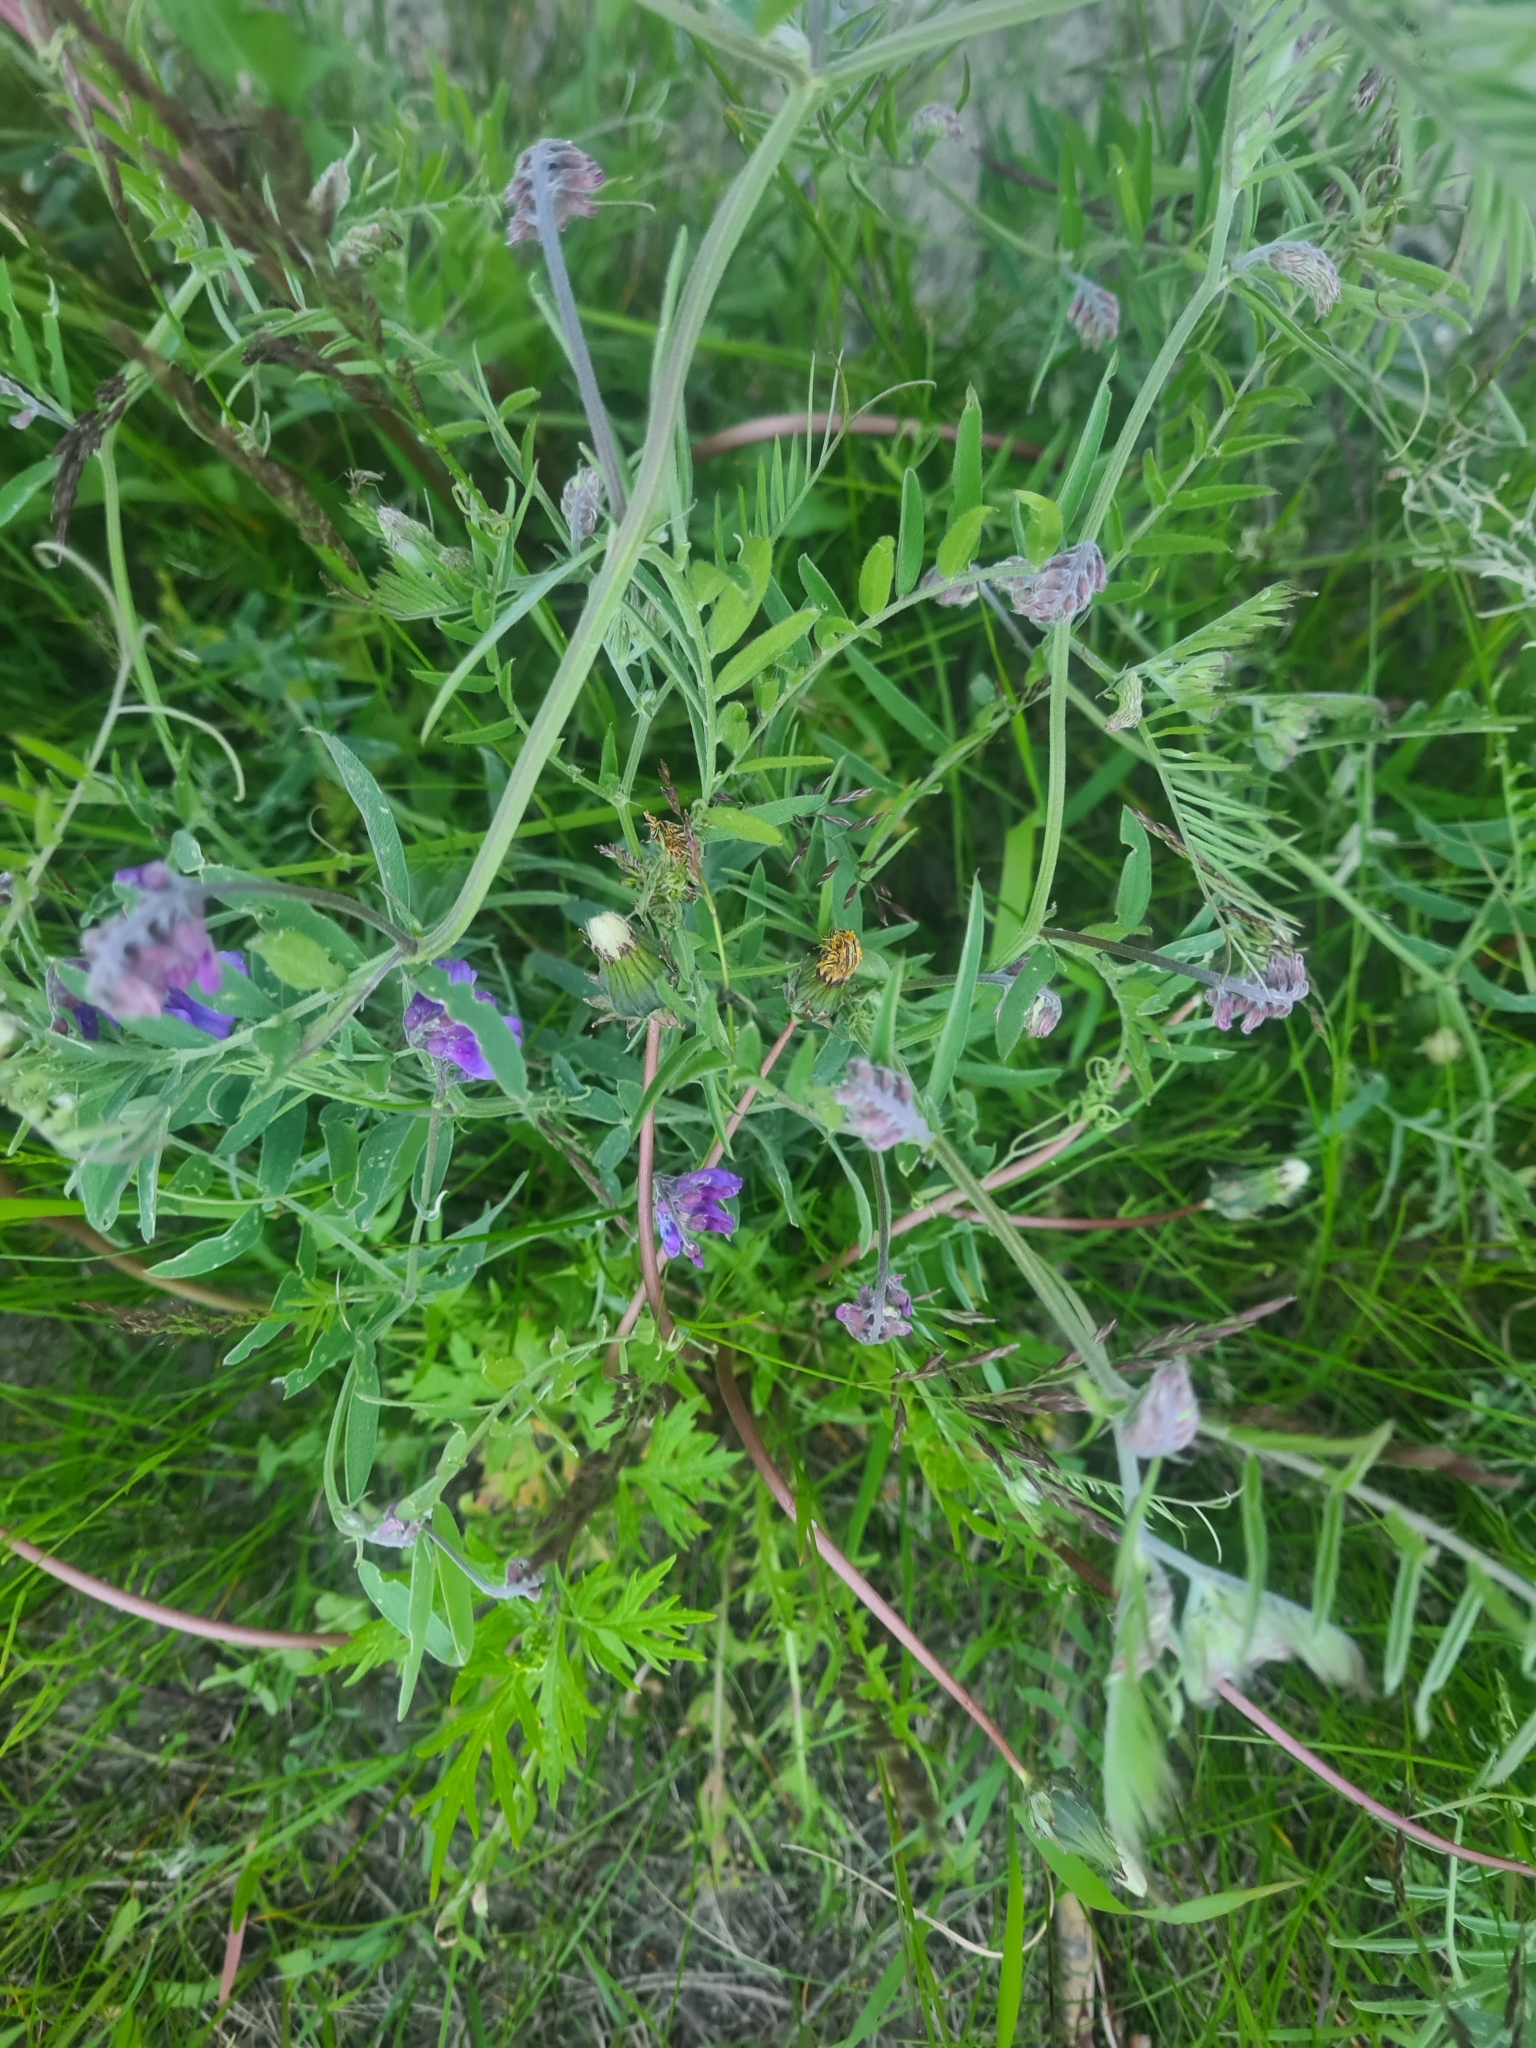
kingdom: Plantae
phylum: Tracheophyta
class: Magnoliopsida
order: Fabales
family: Fabaceae
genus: Vicia
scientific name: Vicia cracca
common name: Bird vetch
